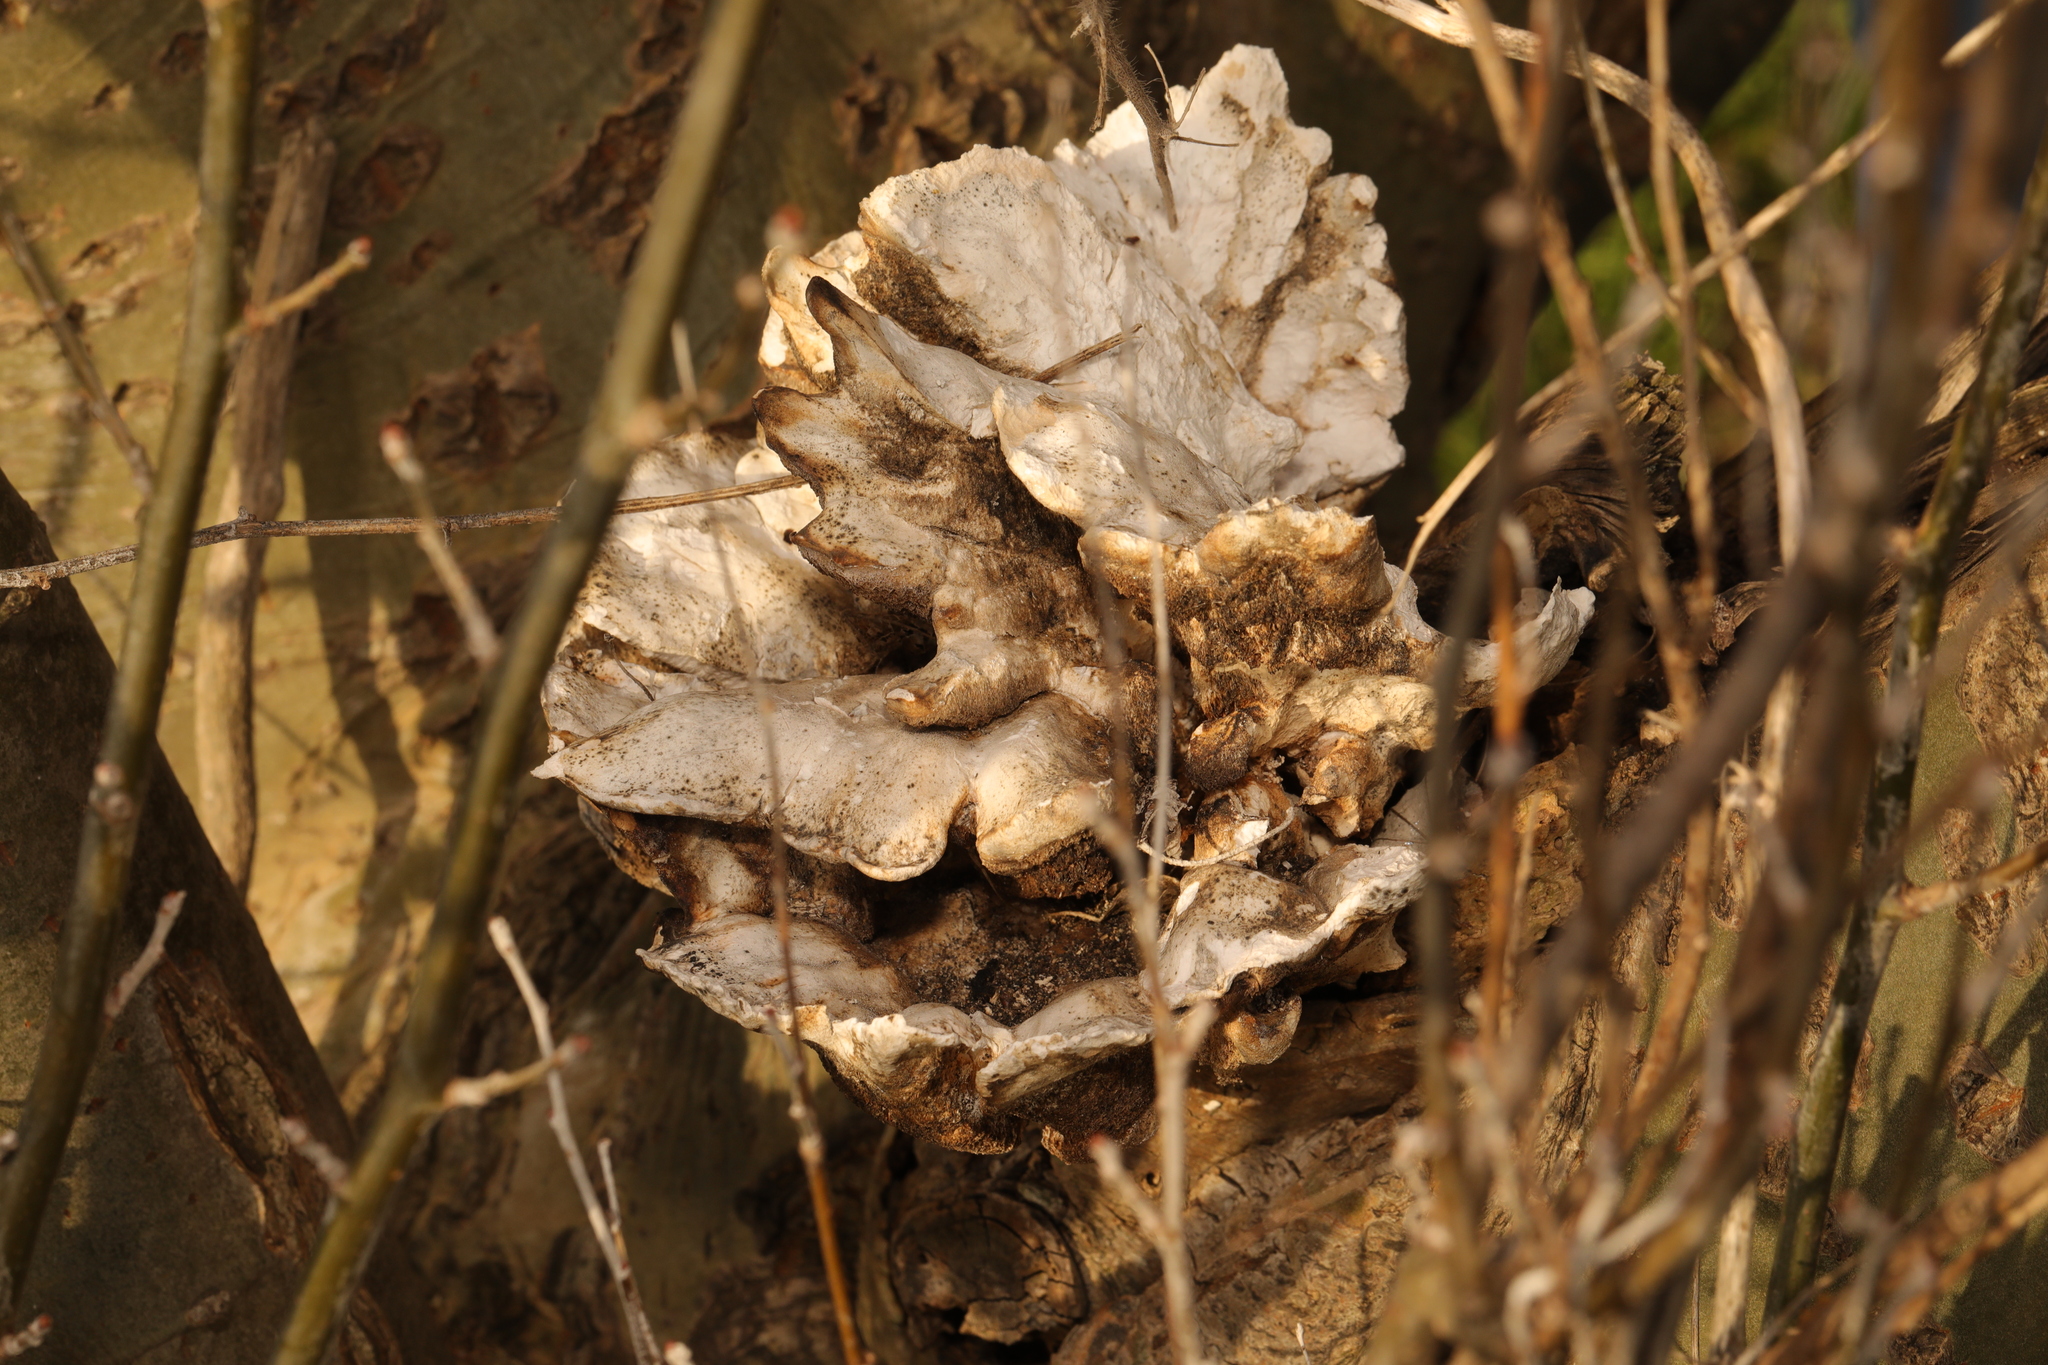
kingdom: Fungi
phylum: Basidiomycota
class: Agaricomycetes
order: Polyporales
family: Laetiporaceae
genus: Laetiporus
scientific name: Laetiporus sulphureus
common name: Chicken of the woods
